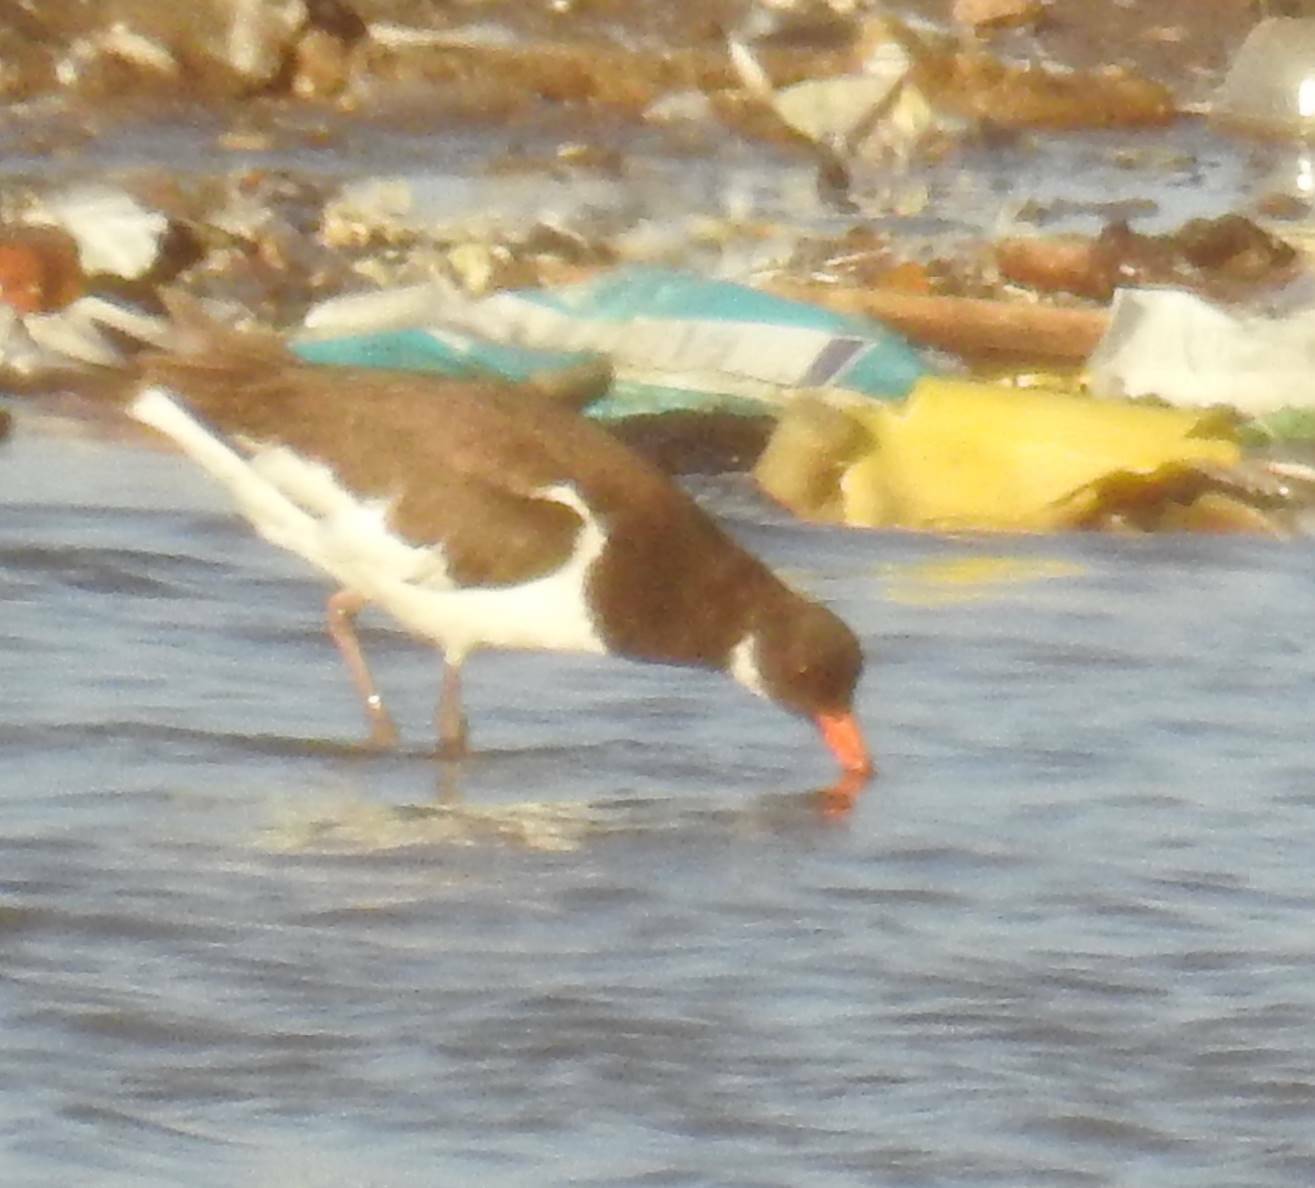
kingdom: Animalia
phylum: Chordata
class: Aves
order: Charadriiformes
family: Haematopodidae
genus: Haematopus
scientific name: Haematopus ostralegus
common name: Eurasian oystercatcher
